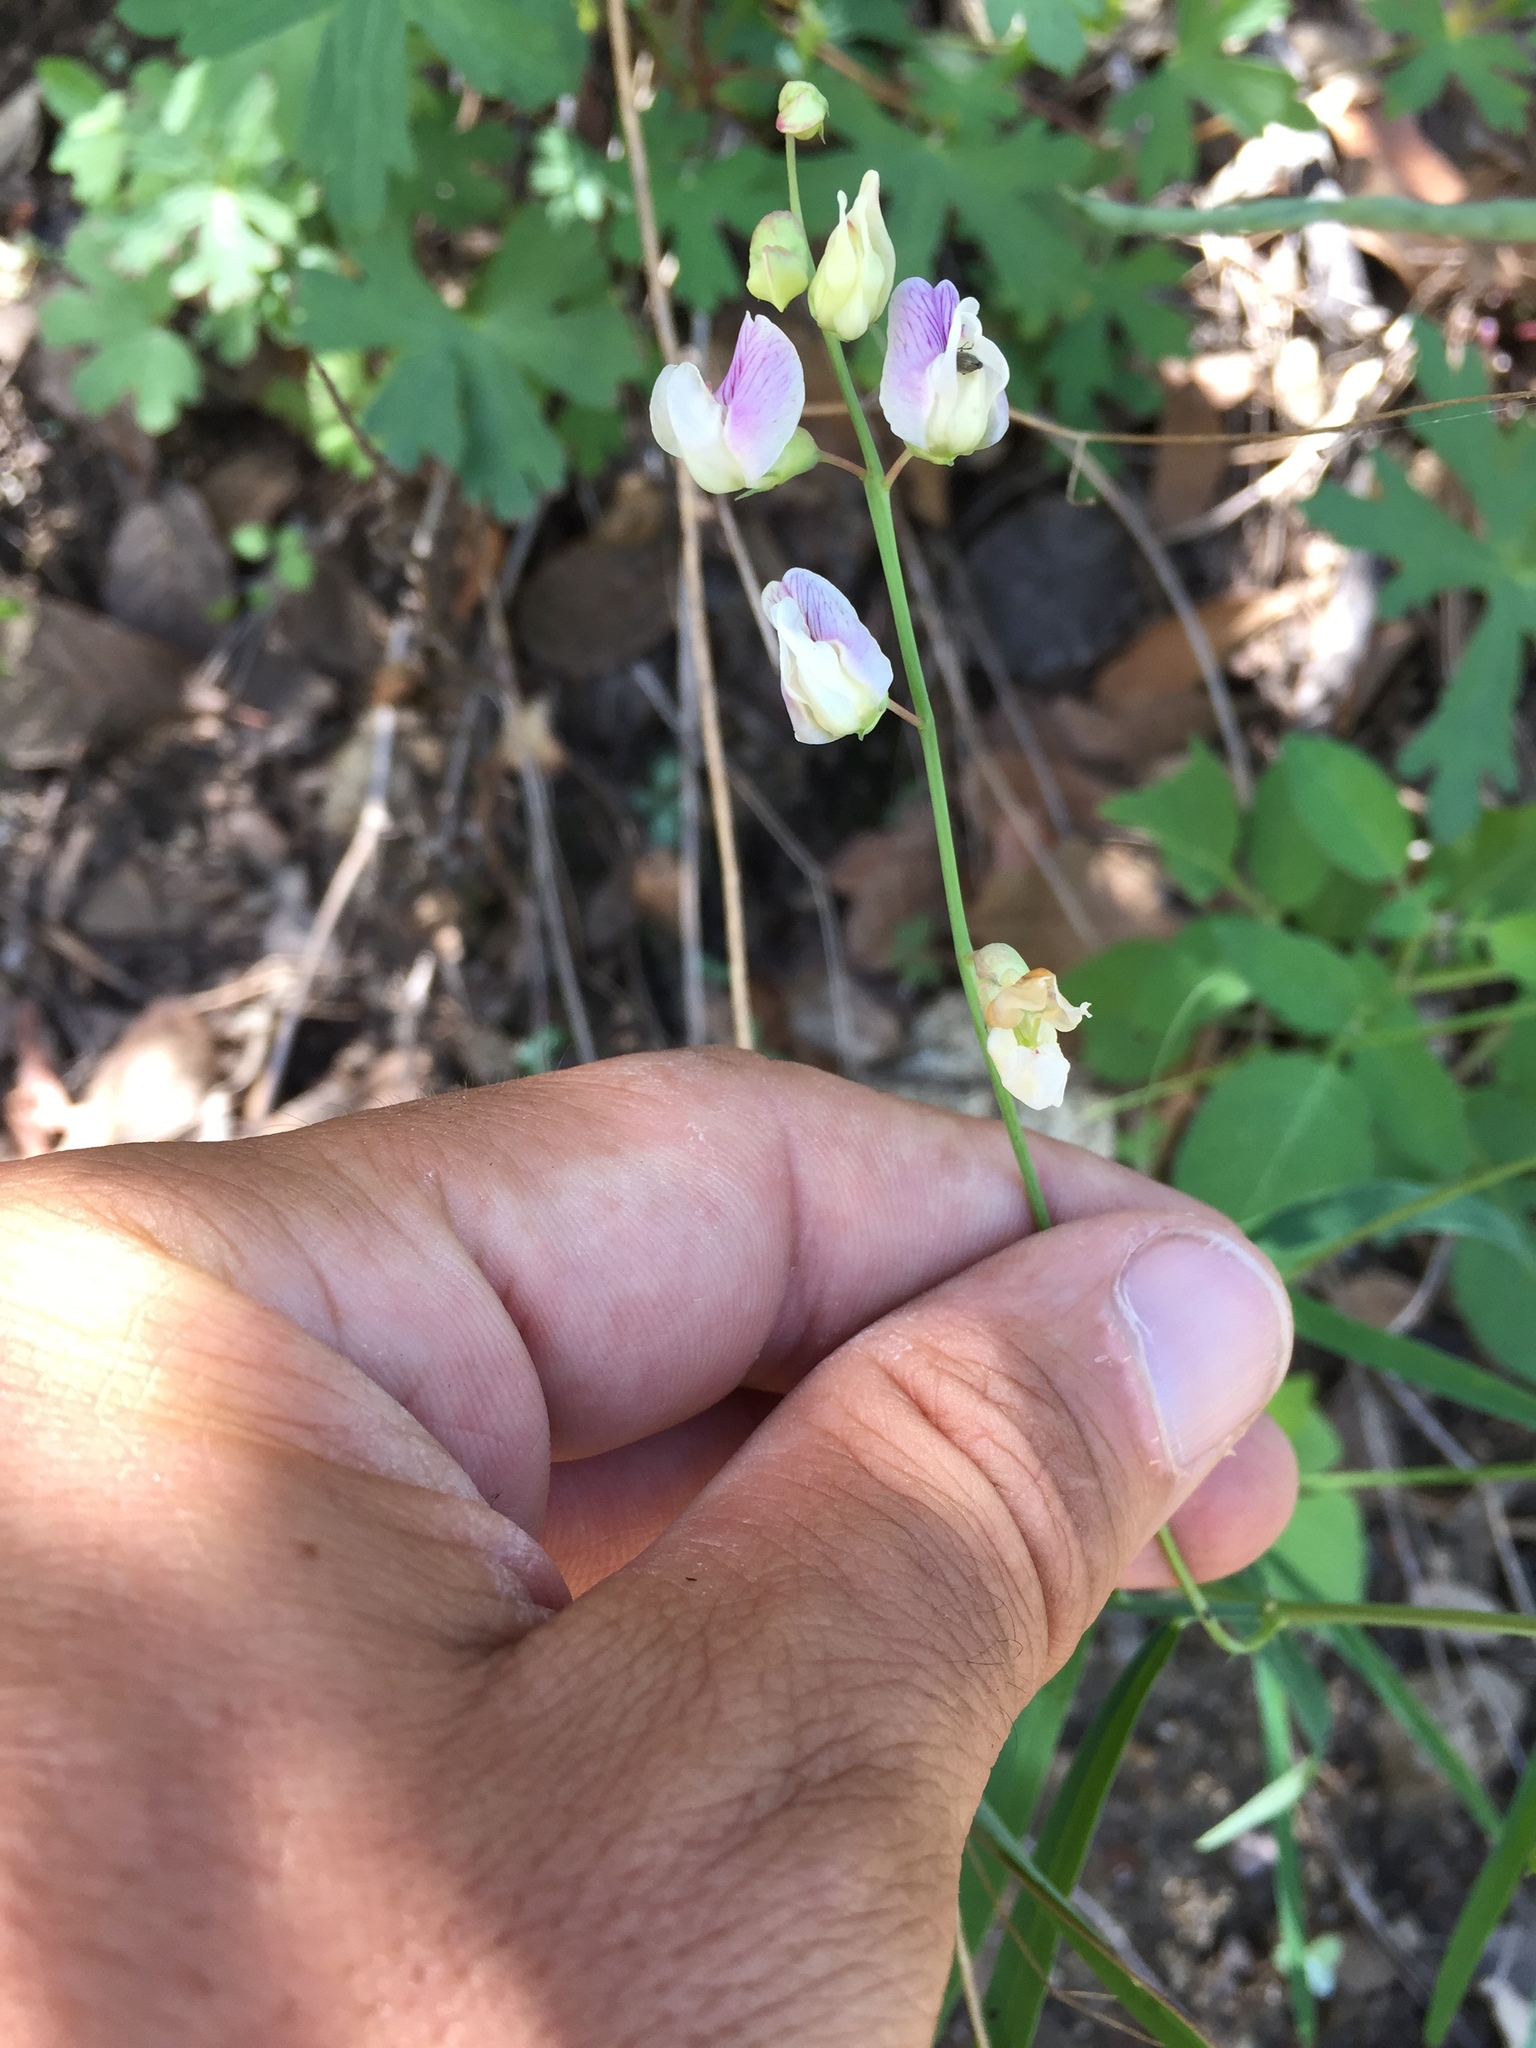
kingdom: Plantae
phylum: Tracheophyta
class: Magnoliopsida
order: Fabales
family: Fabaceae
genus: Lathyrus
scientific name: Lathyrus graminifolius
